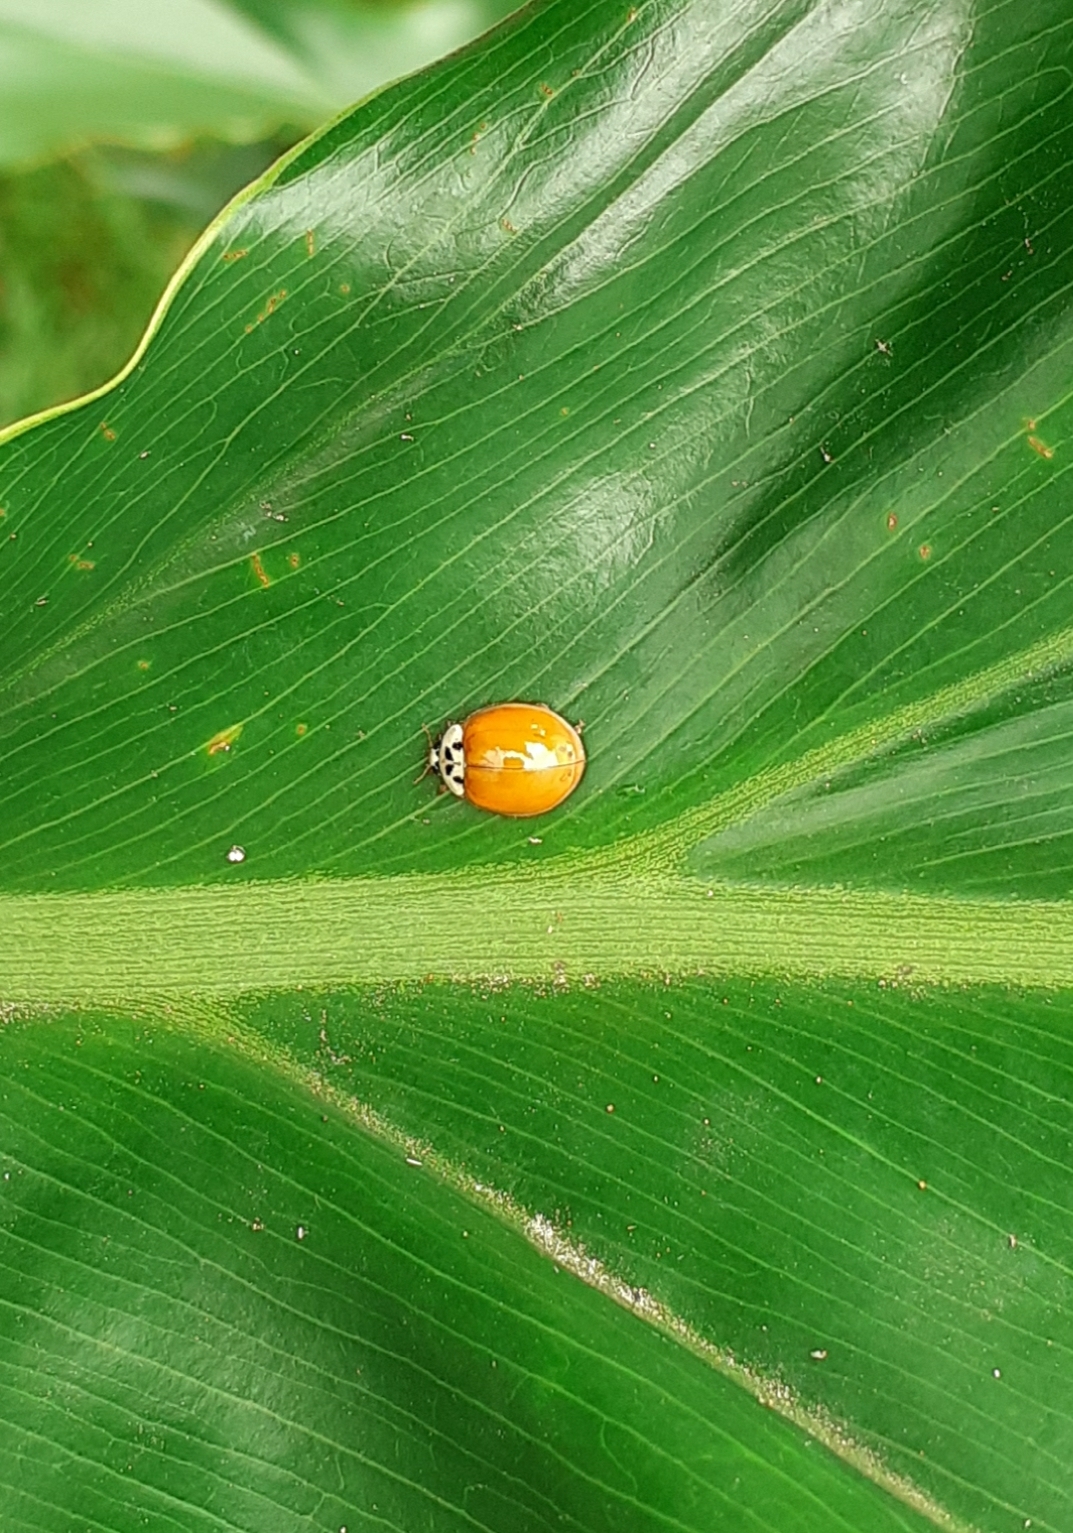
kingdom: Animalia
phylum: Arthropoda
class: Insecta
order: Coleoptera
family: Coccinellidae
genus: Harmonia
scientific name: Harmonia axyridis
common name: Harlequin ladybird
